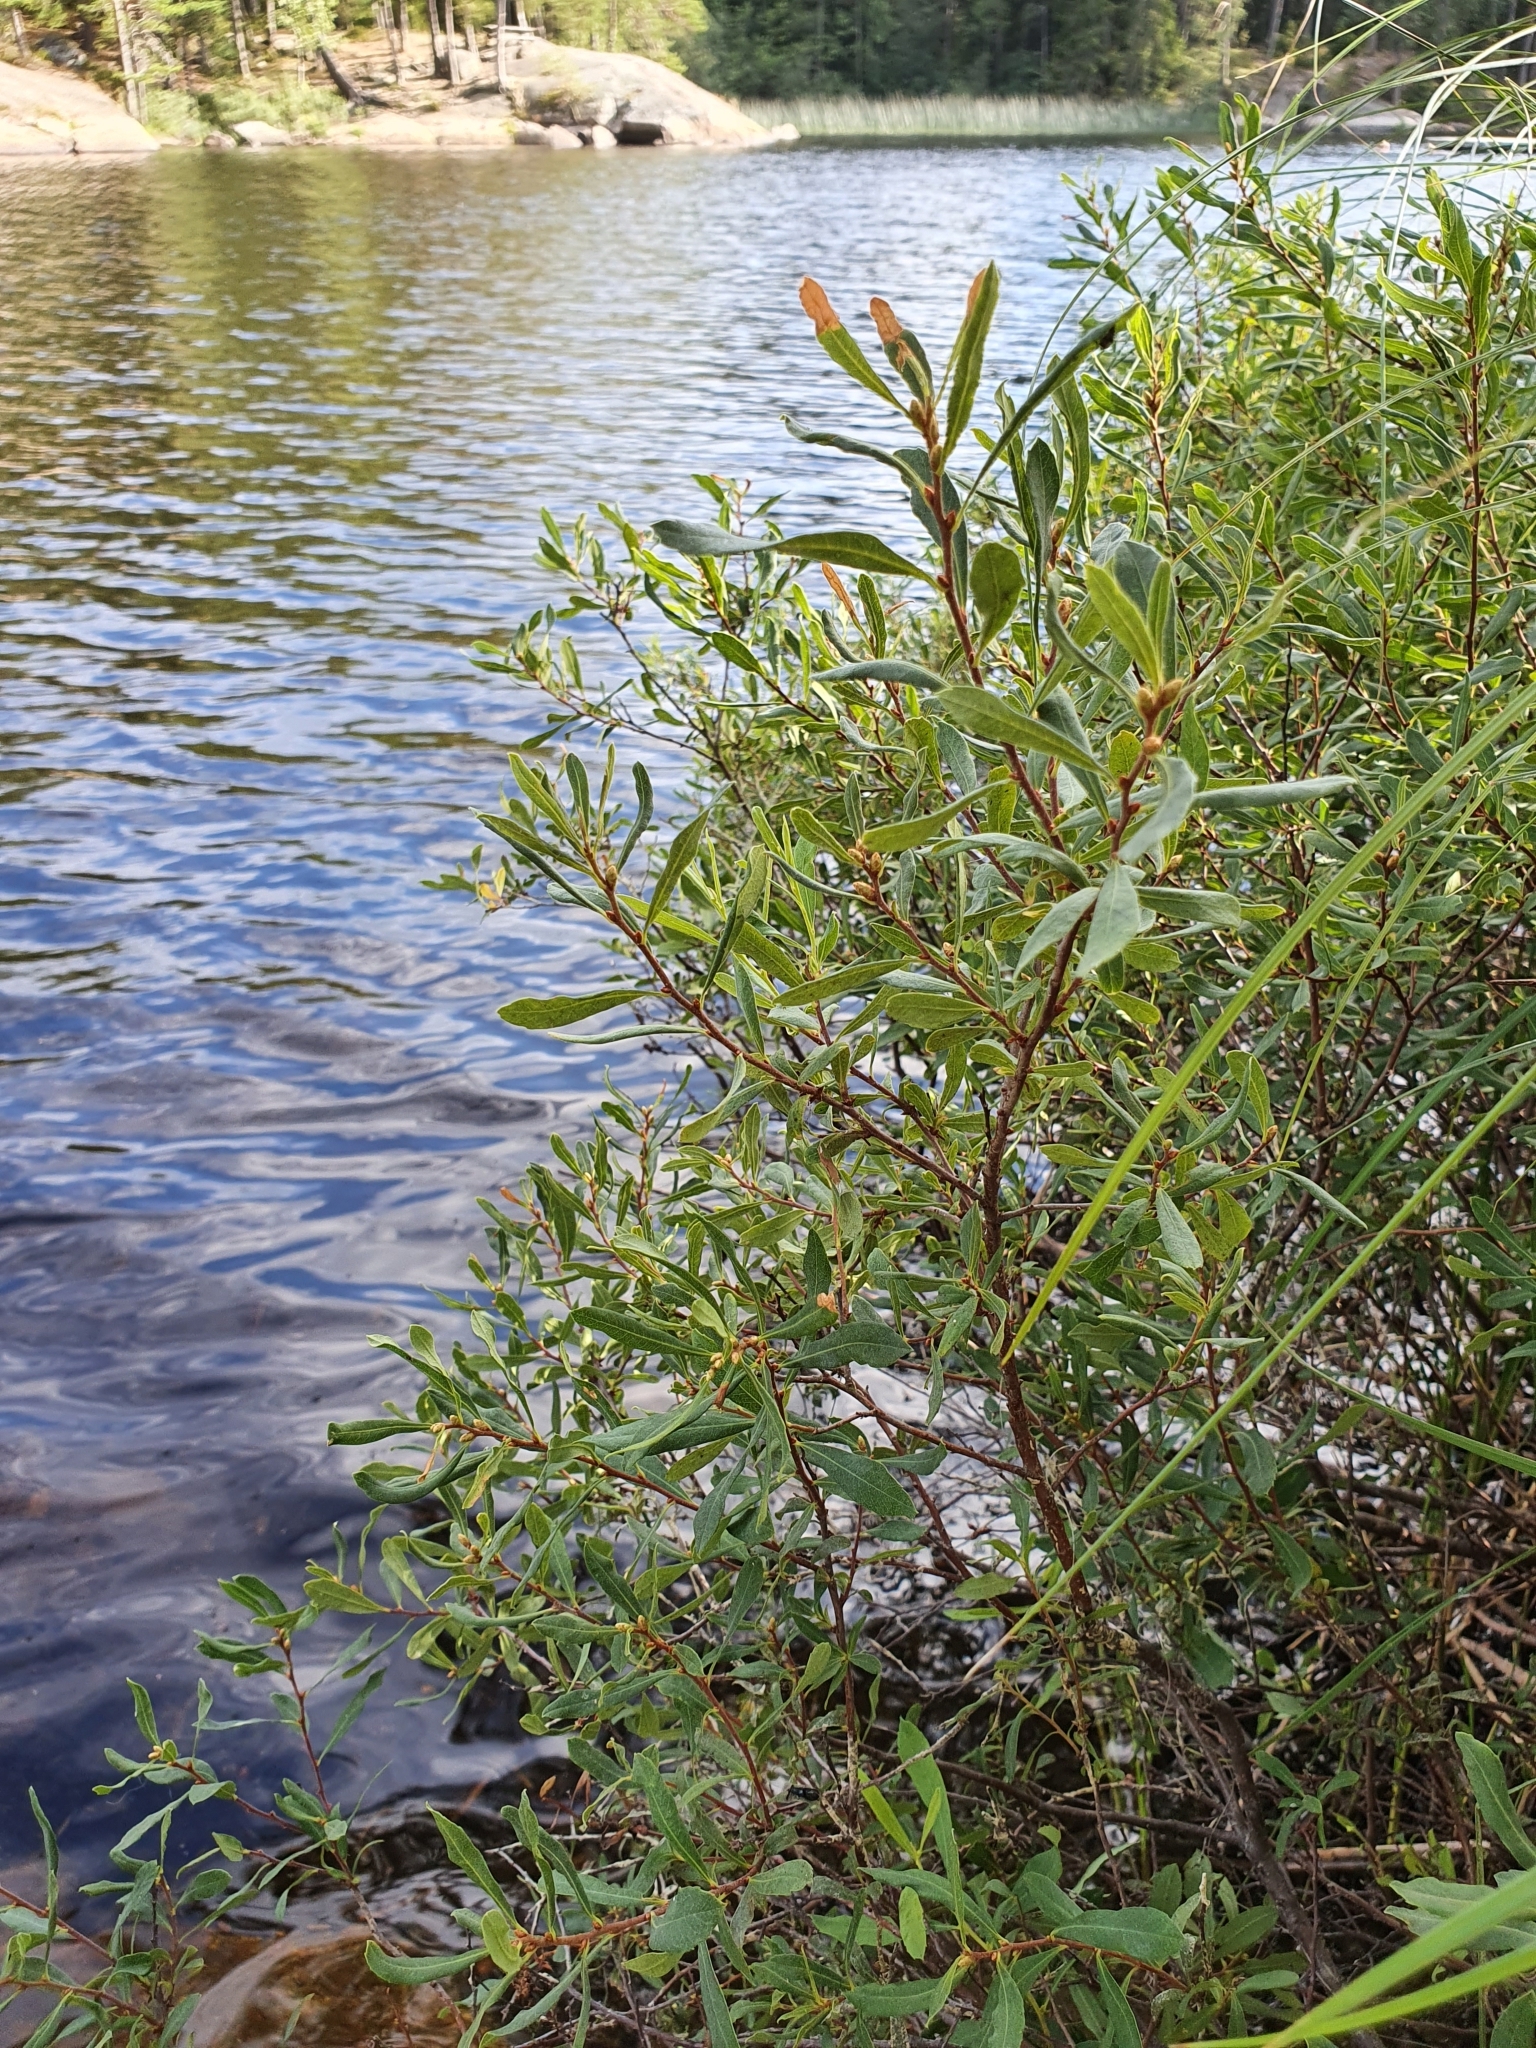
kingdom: Plantae
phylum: Tracheophyta
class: Magnoliopsida
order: Fagales
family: Myricaceae
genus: Myrica
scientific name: Myrica gale
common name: Sweet gale
